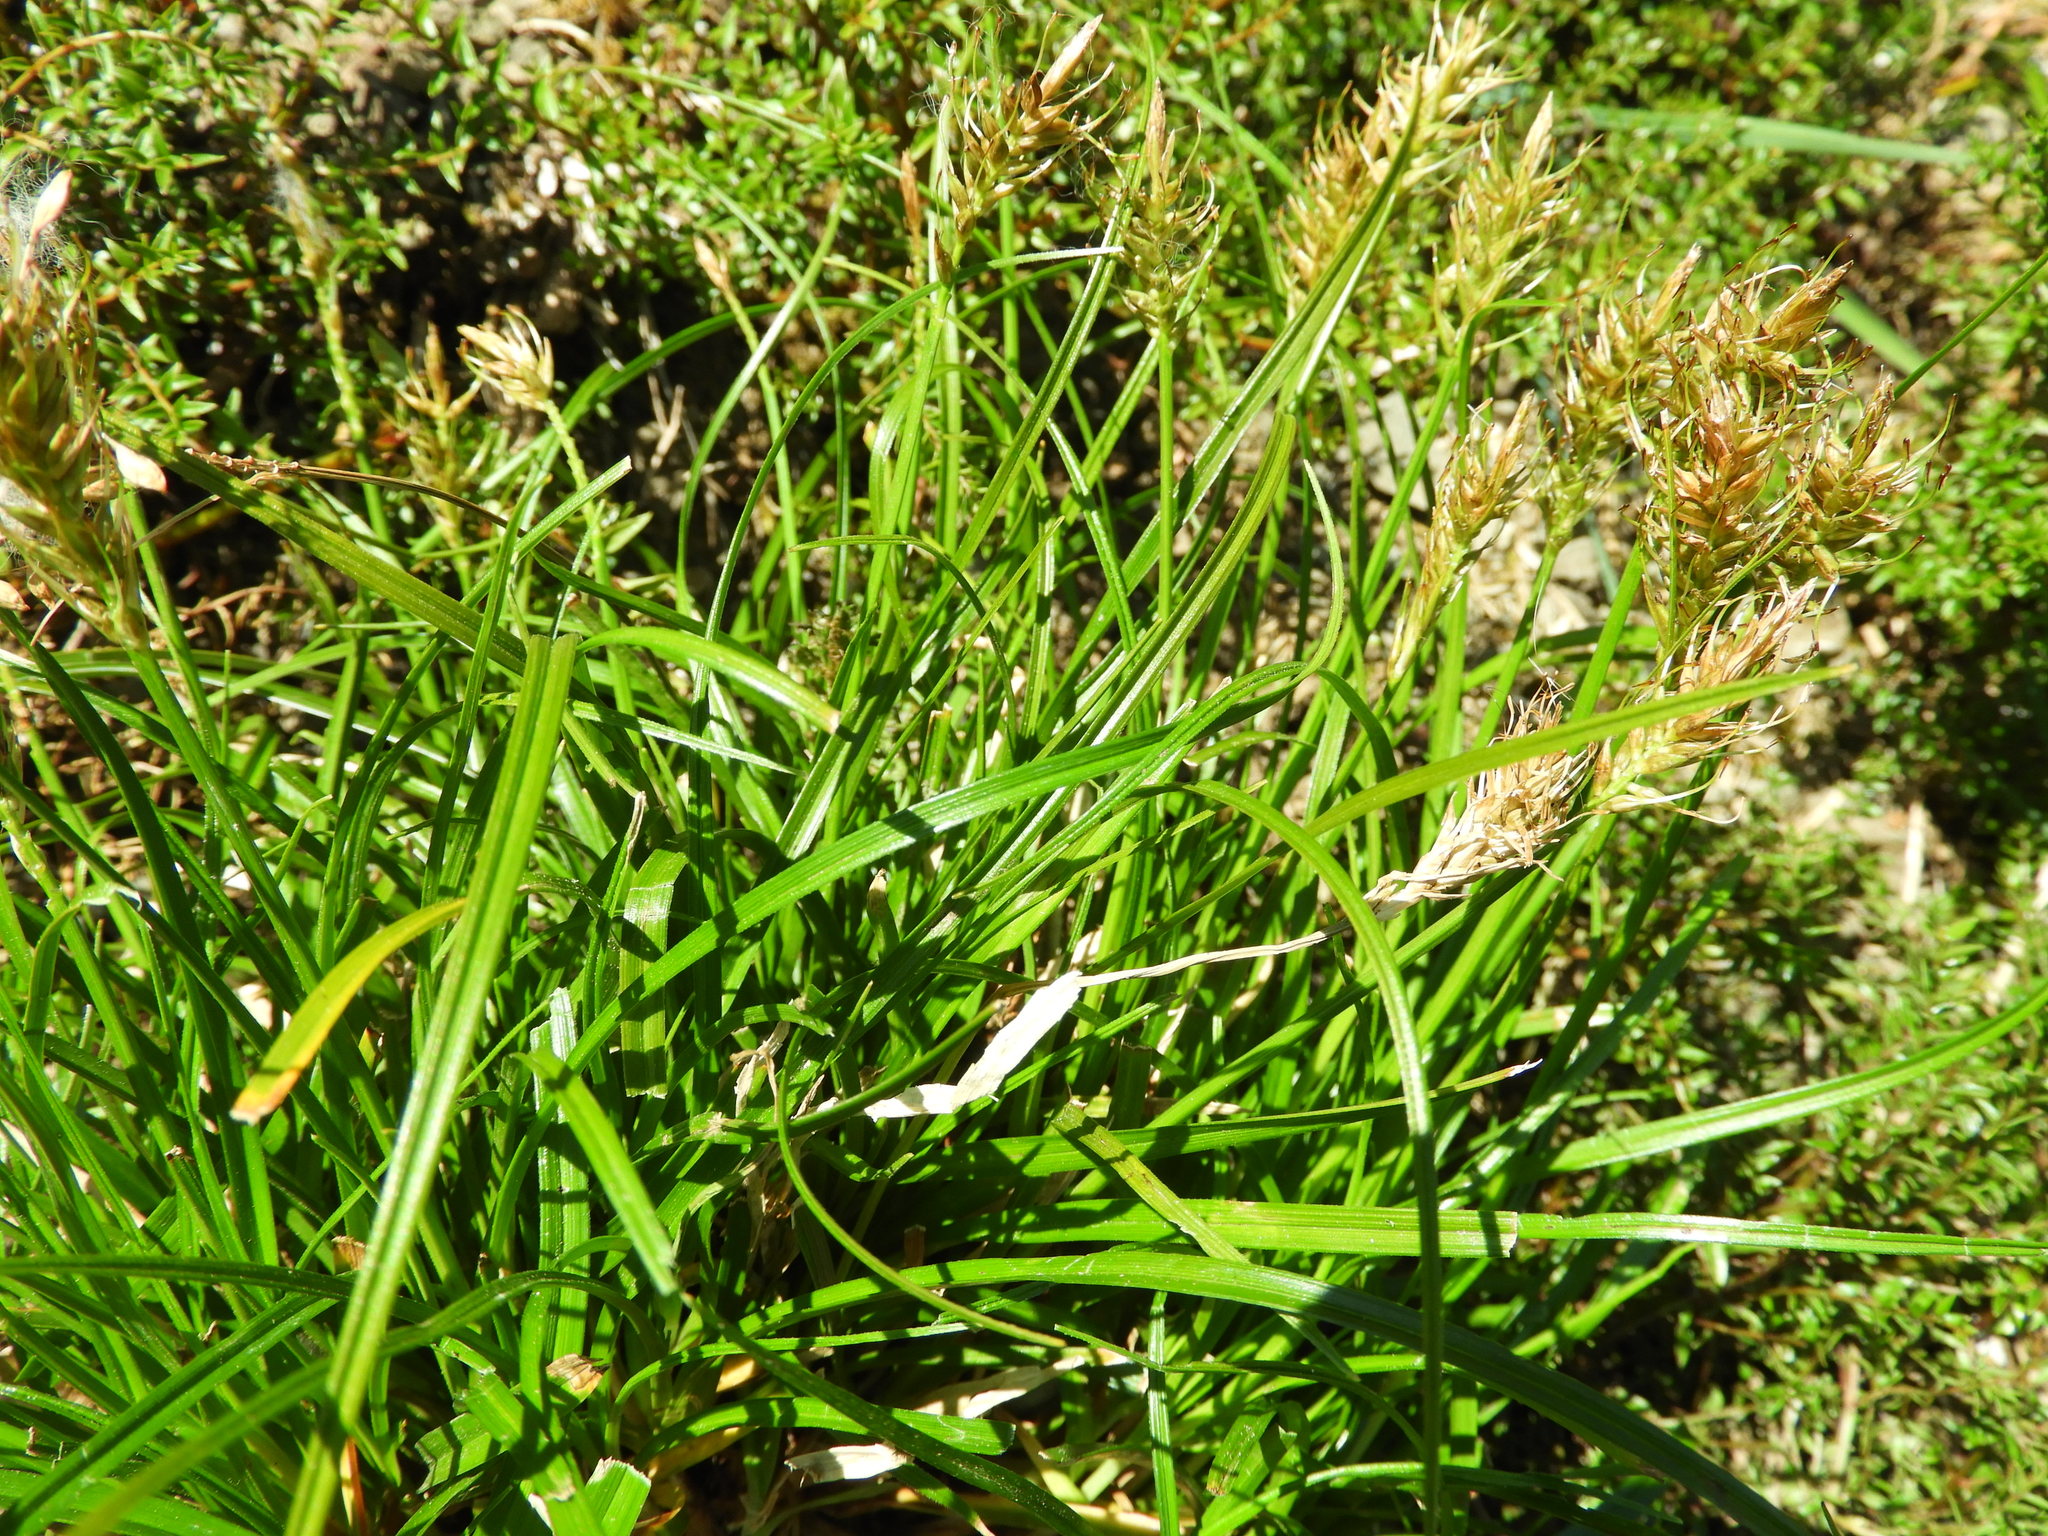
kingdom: Plantae
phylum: Tracheophyta
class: Liliopsida
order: Poales
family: Cyperaceae
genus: Carex
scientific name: Carex edura
